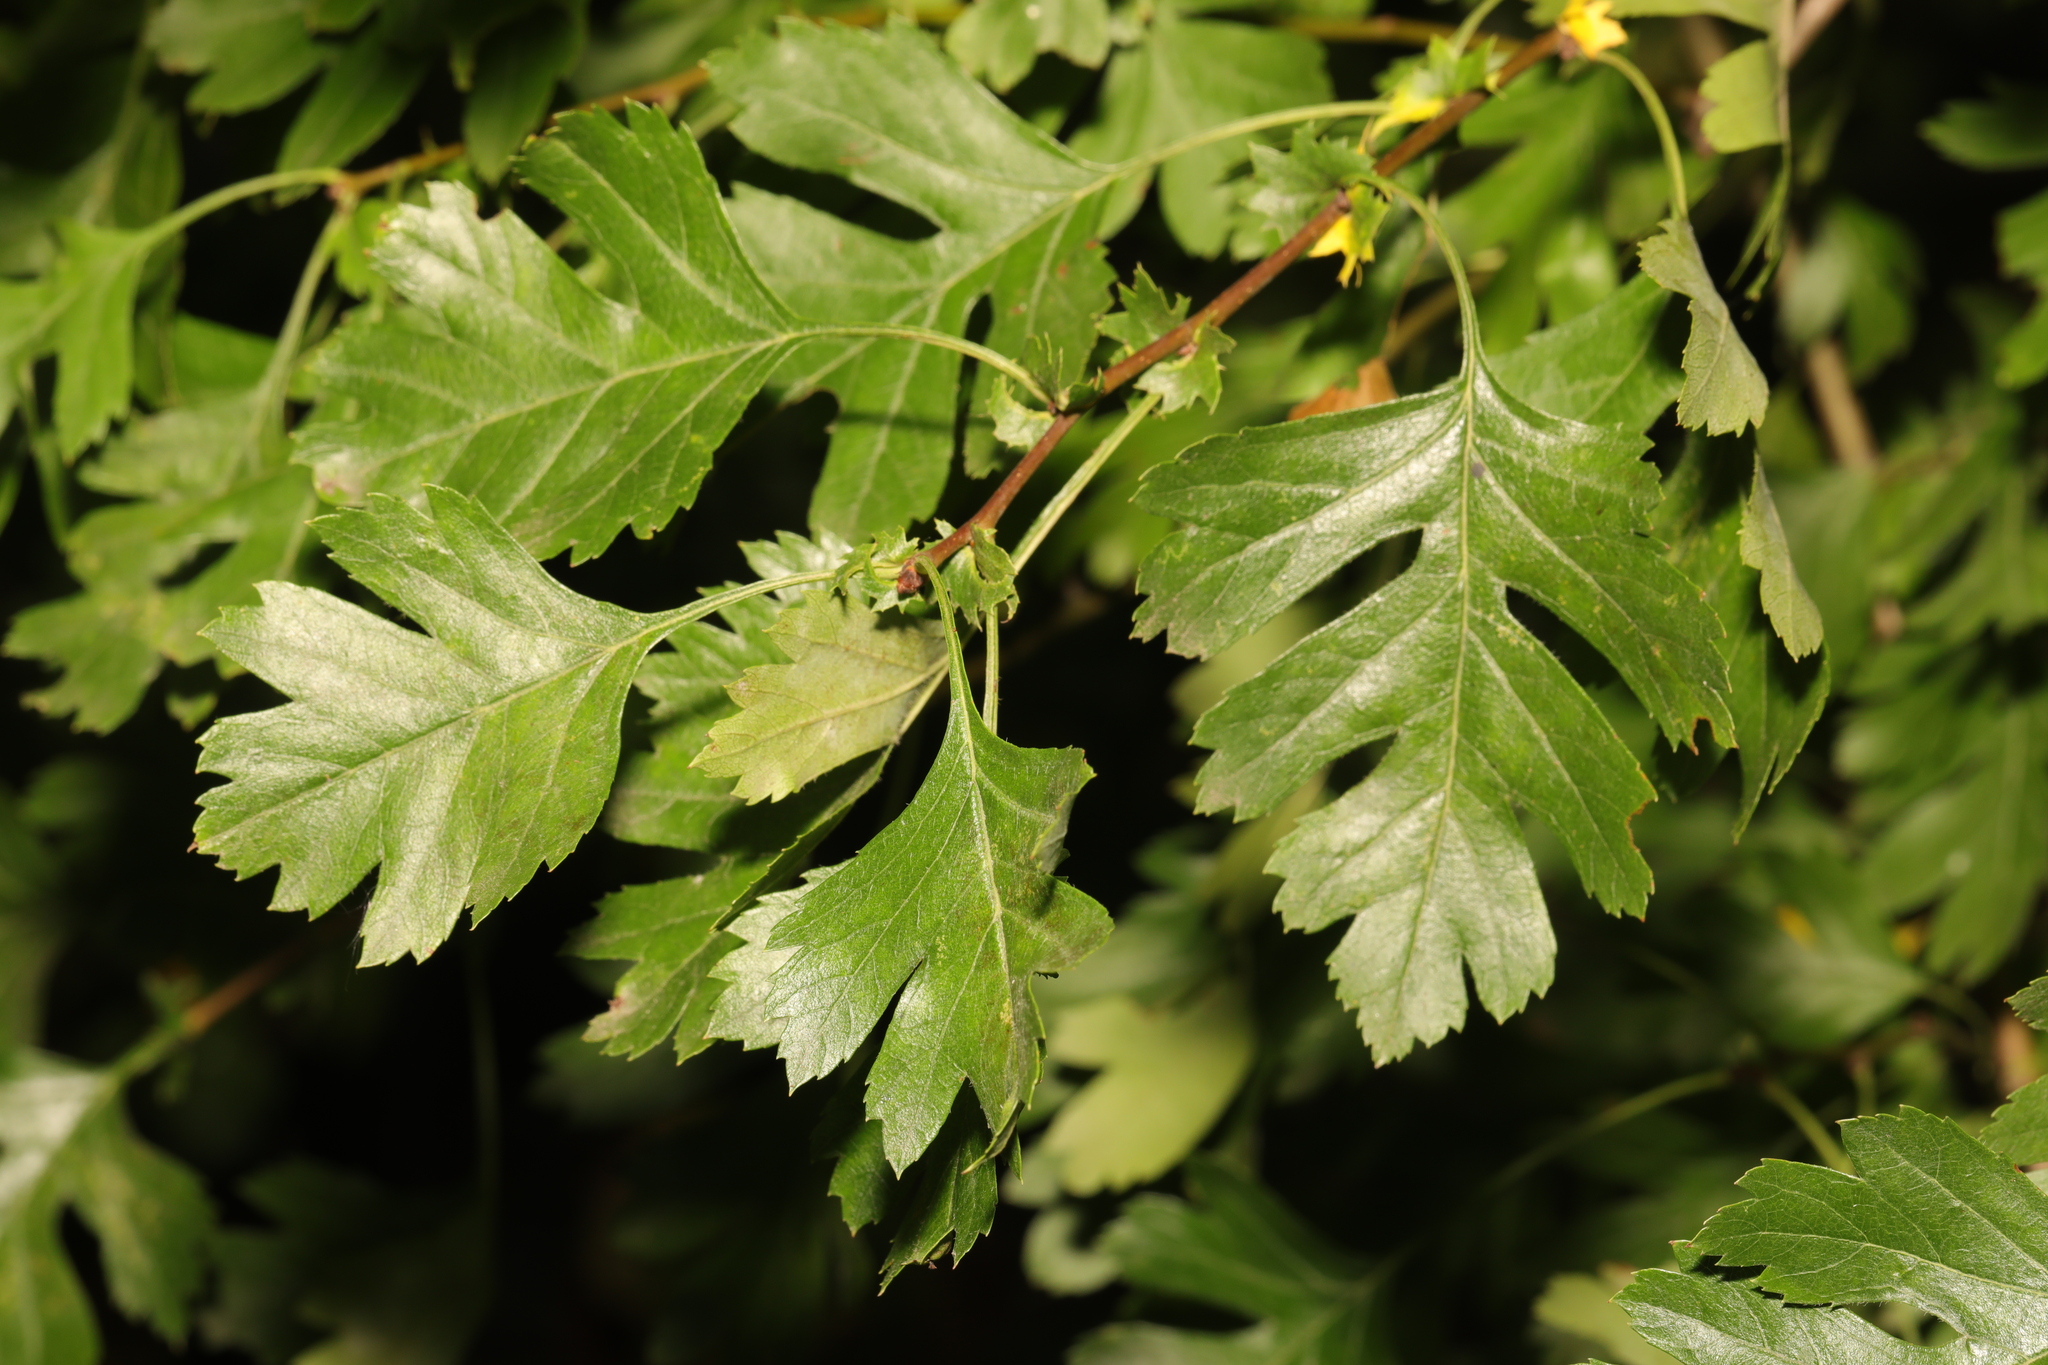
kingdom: Plantae
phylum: Tracheophyta
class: Magnoliopsida
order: Rosales
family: Rosaceae
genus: Crataegus
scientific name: Crataegus monogyna
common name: Hawthorn
